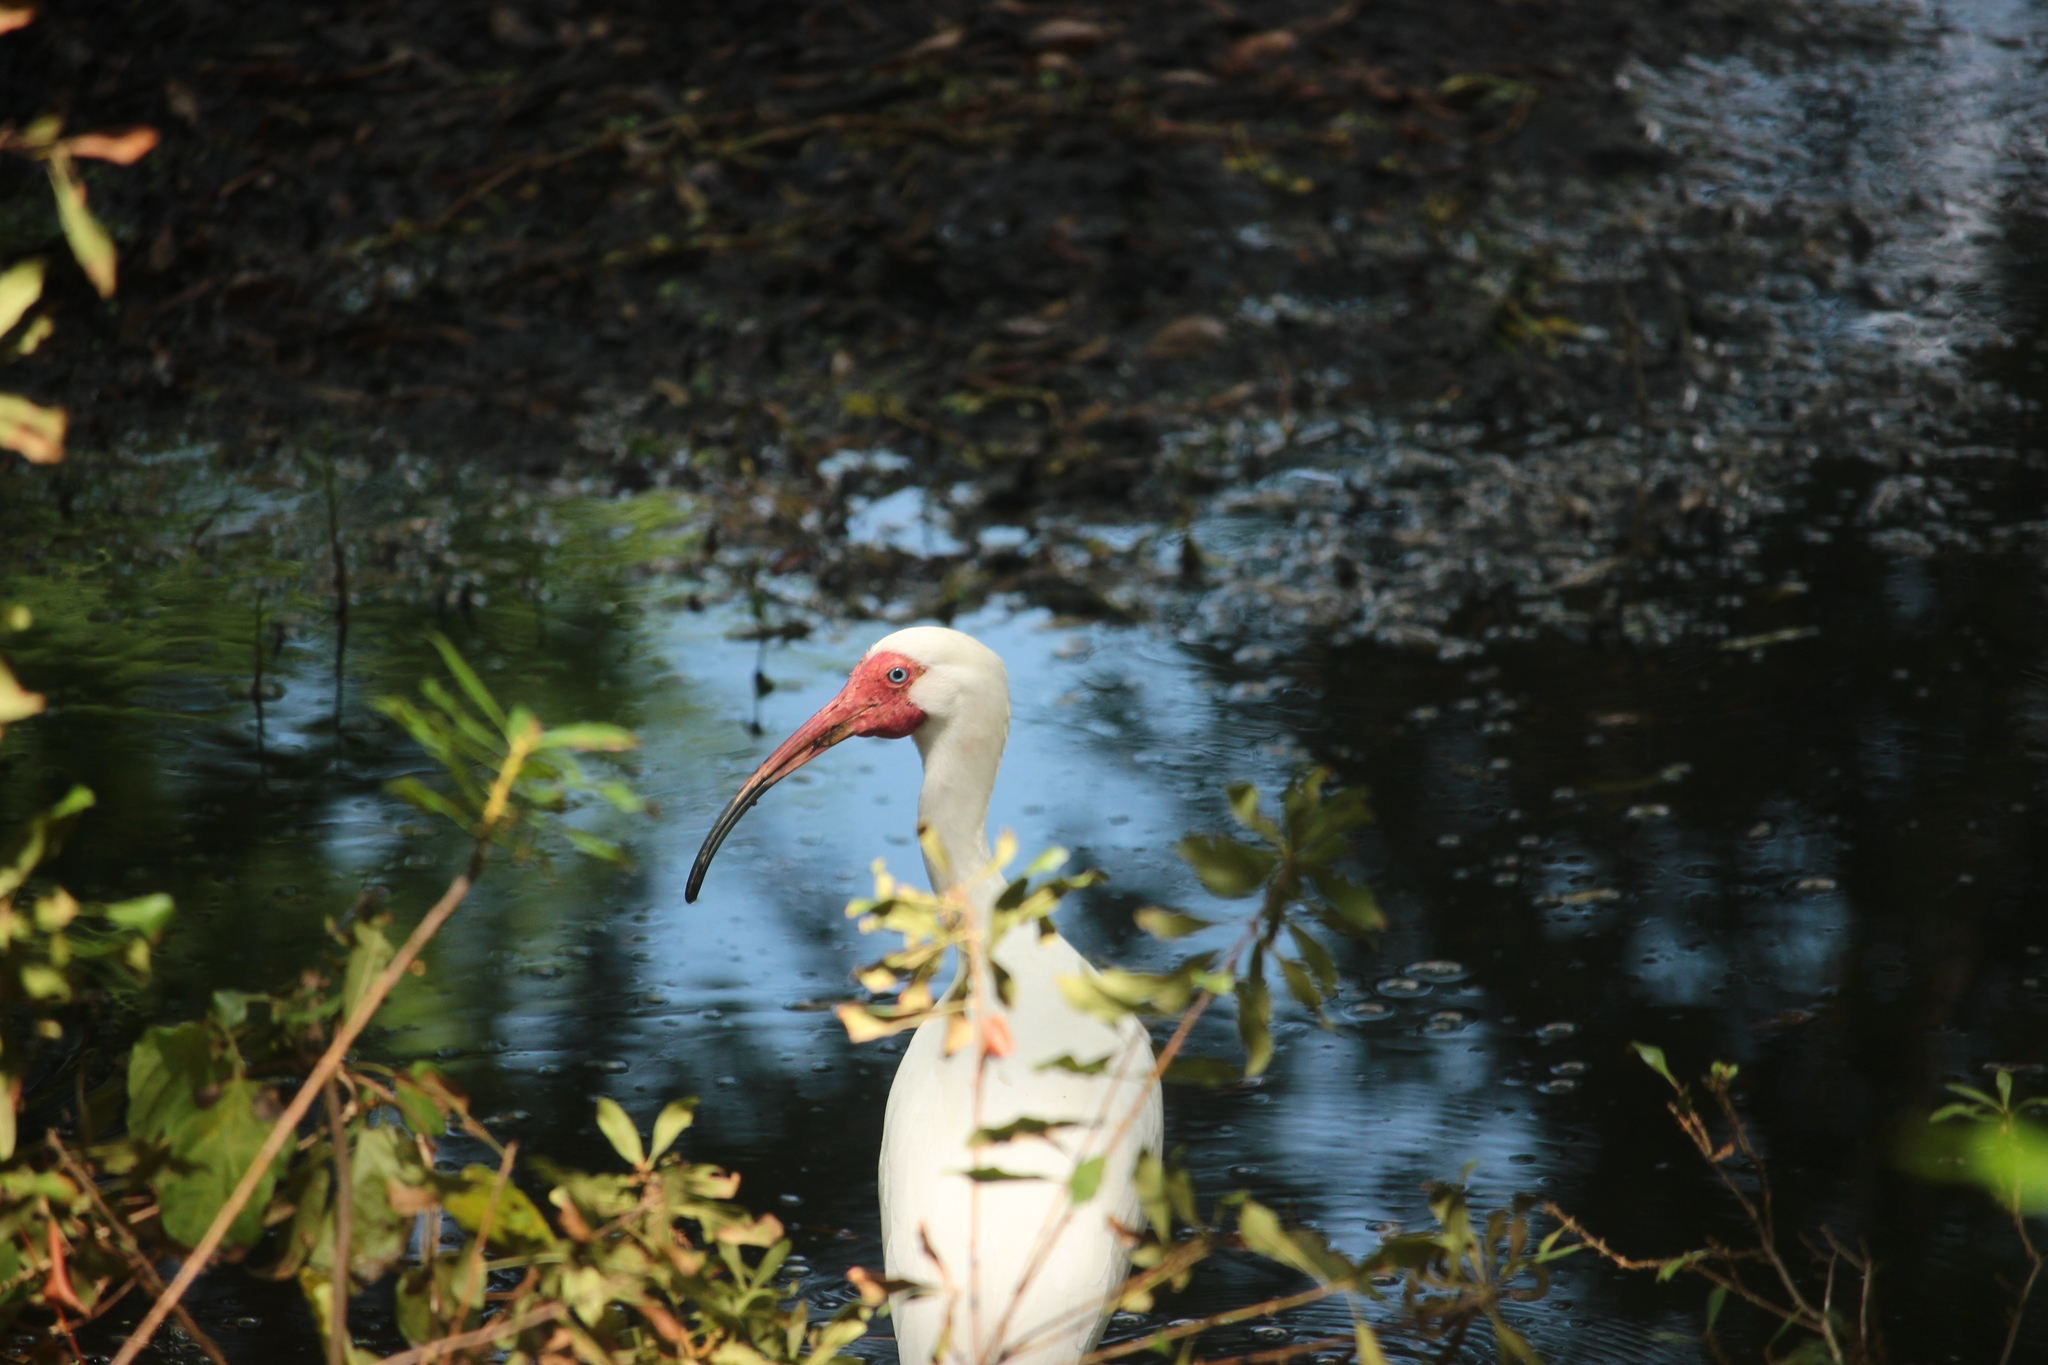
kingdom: Animalia
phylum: Chordata
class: Aves
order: Pelecaniformes
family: Threskiornithidae
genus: Eudocimus
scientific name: Eudocimus albus
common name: White ibis
